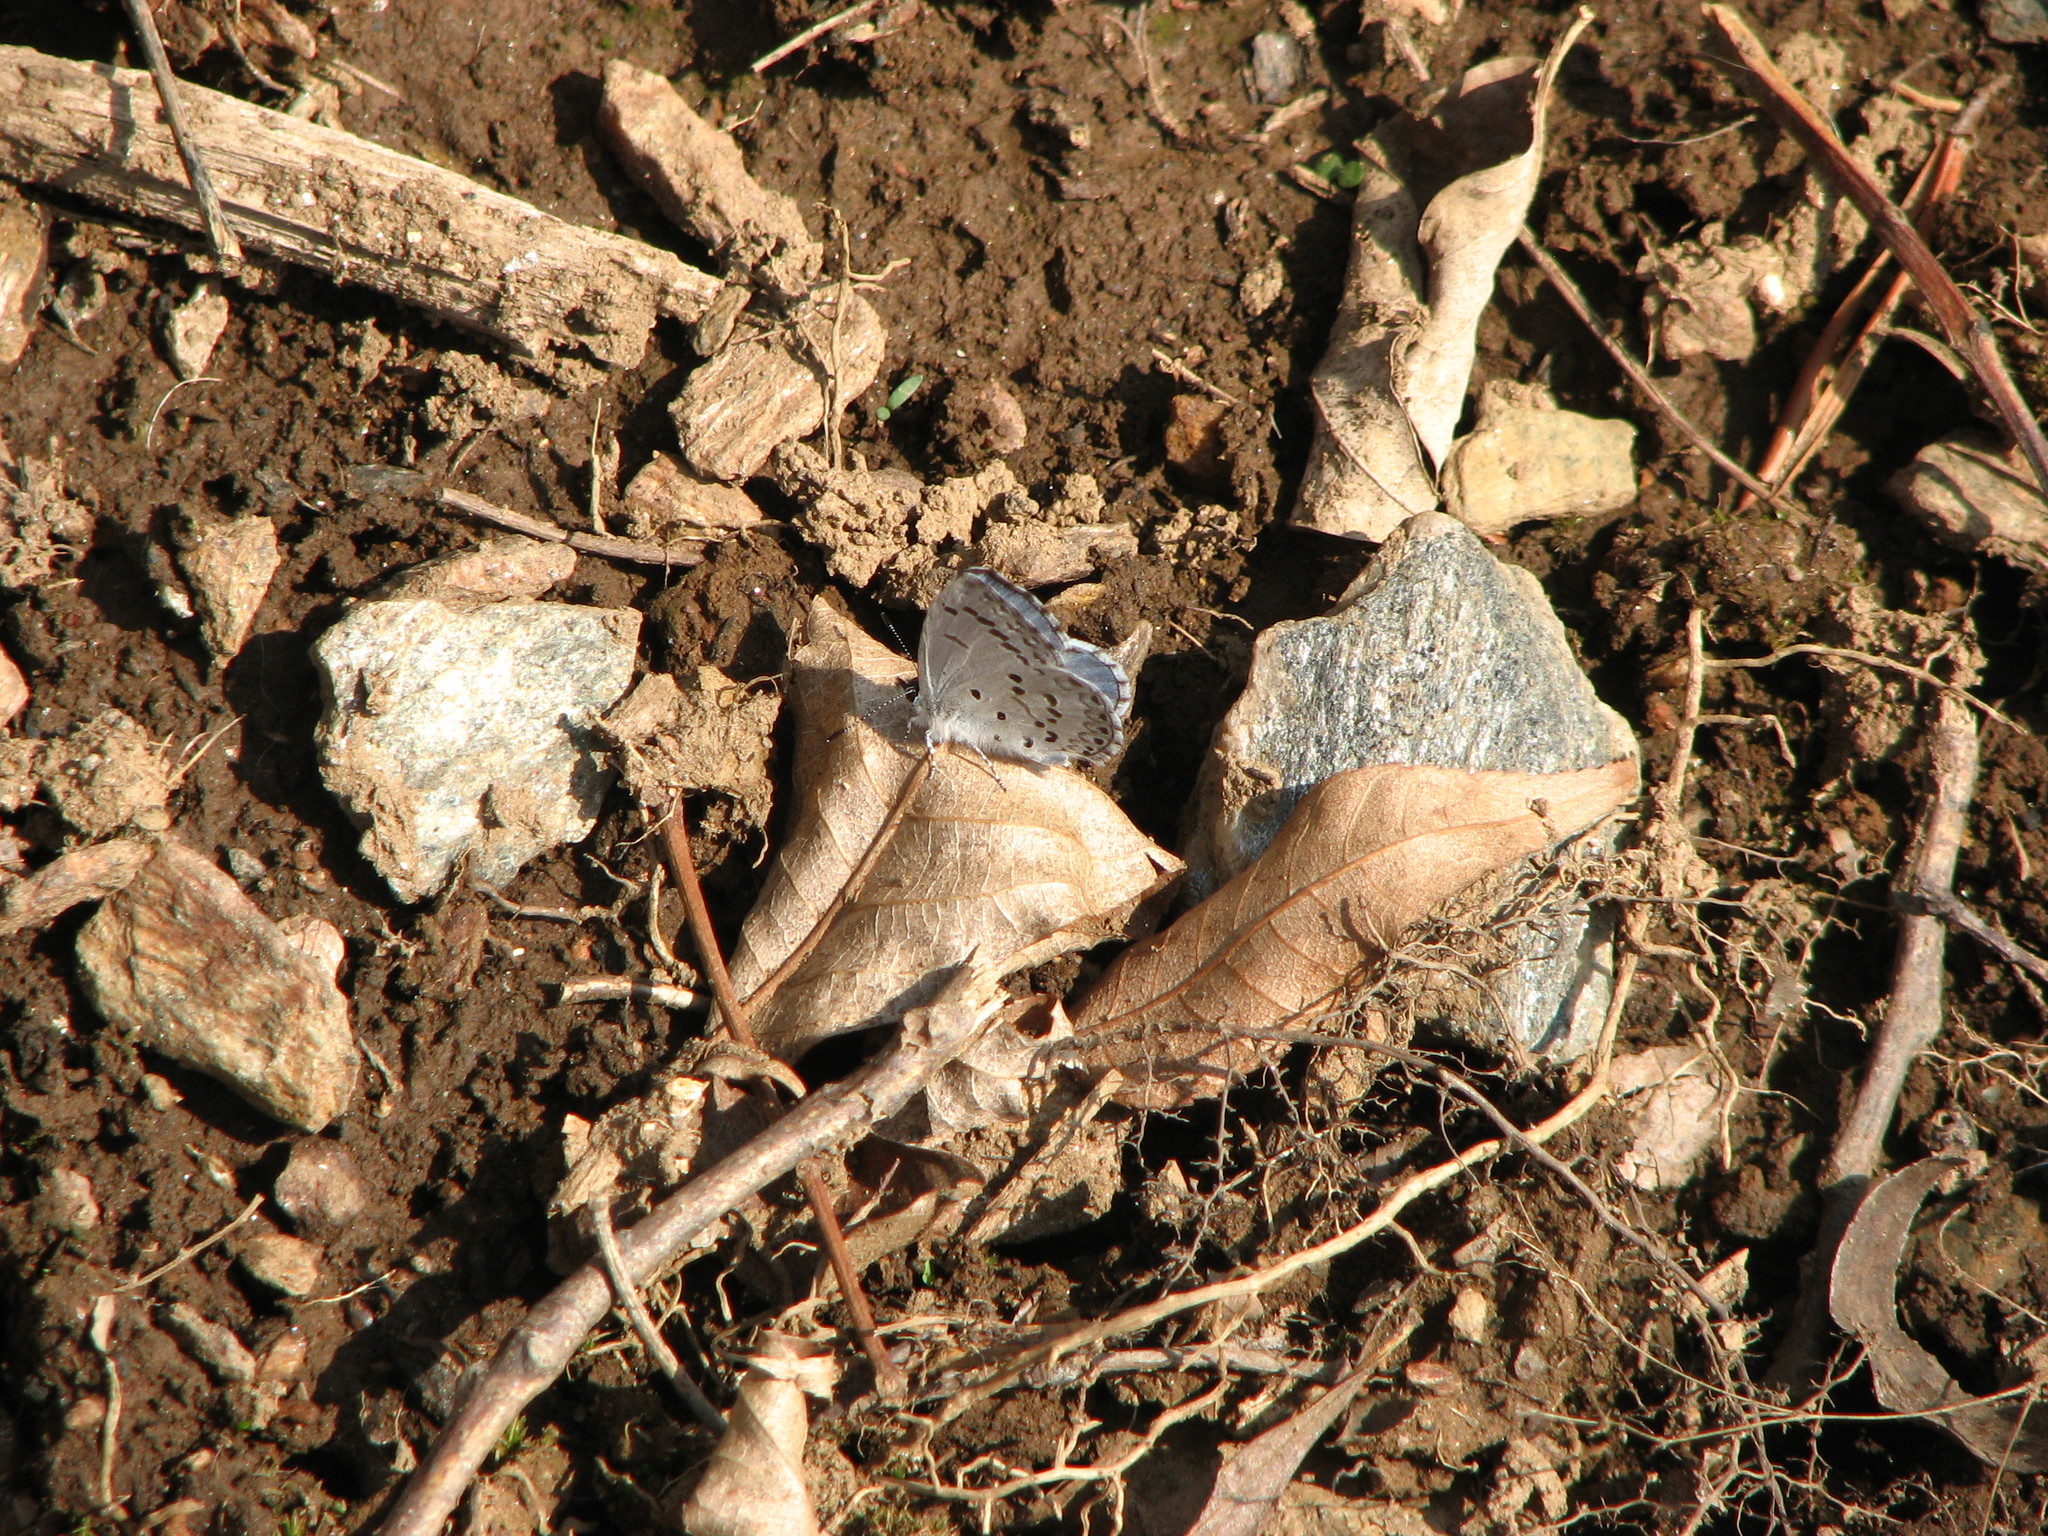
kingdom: Animalia
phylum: Arthropoda
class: Insecta
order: Lepidoptera
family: Lycaenidae
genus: Celastrina
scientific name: Celastrina ladon
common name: Spring azure
